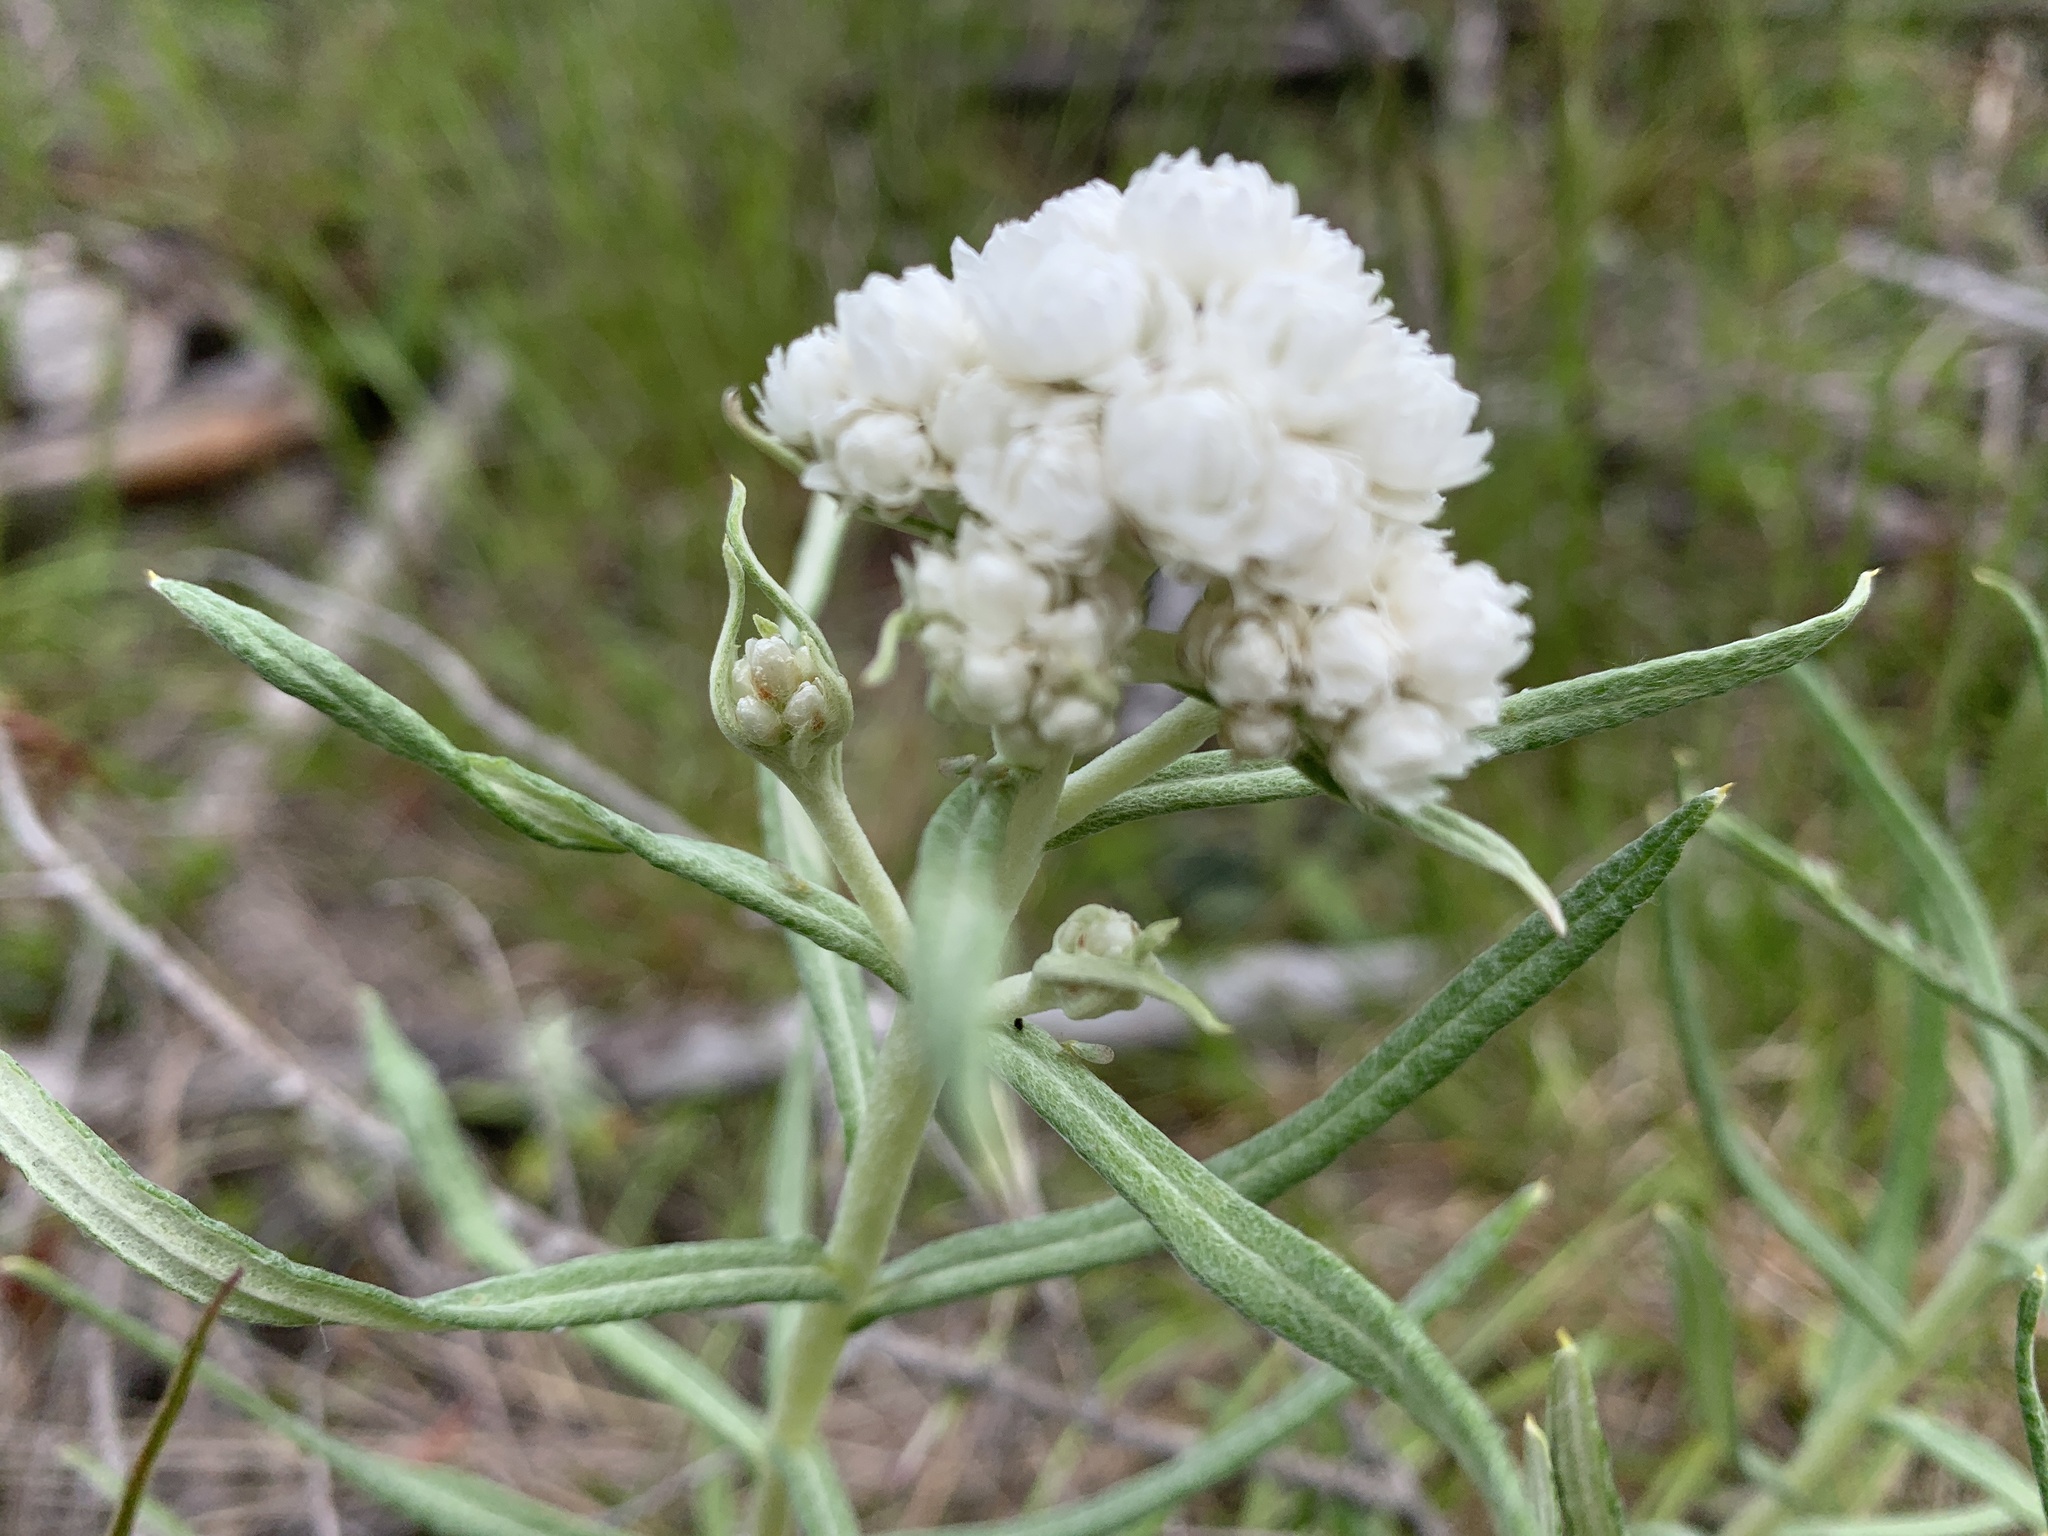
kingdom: Plantae
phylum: Tracheophyta
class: Magnoliopsida
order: Asterales
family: Asteraceae
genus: Anaphalis
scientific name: Anaphalis margaritacea
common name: Pearly everlasting
